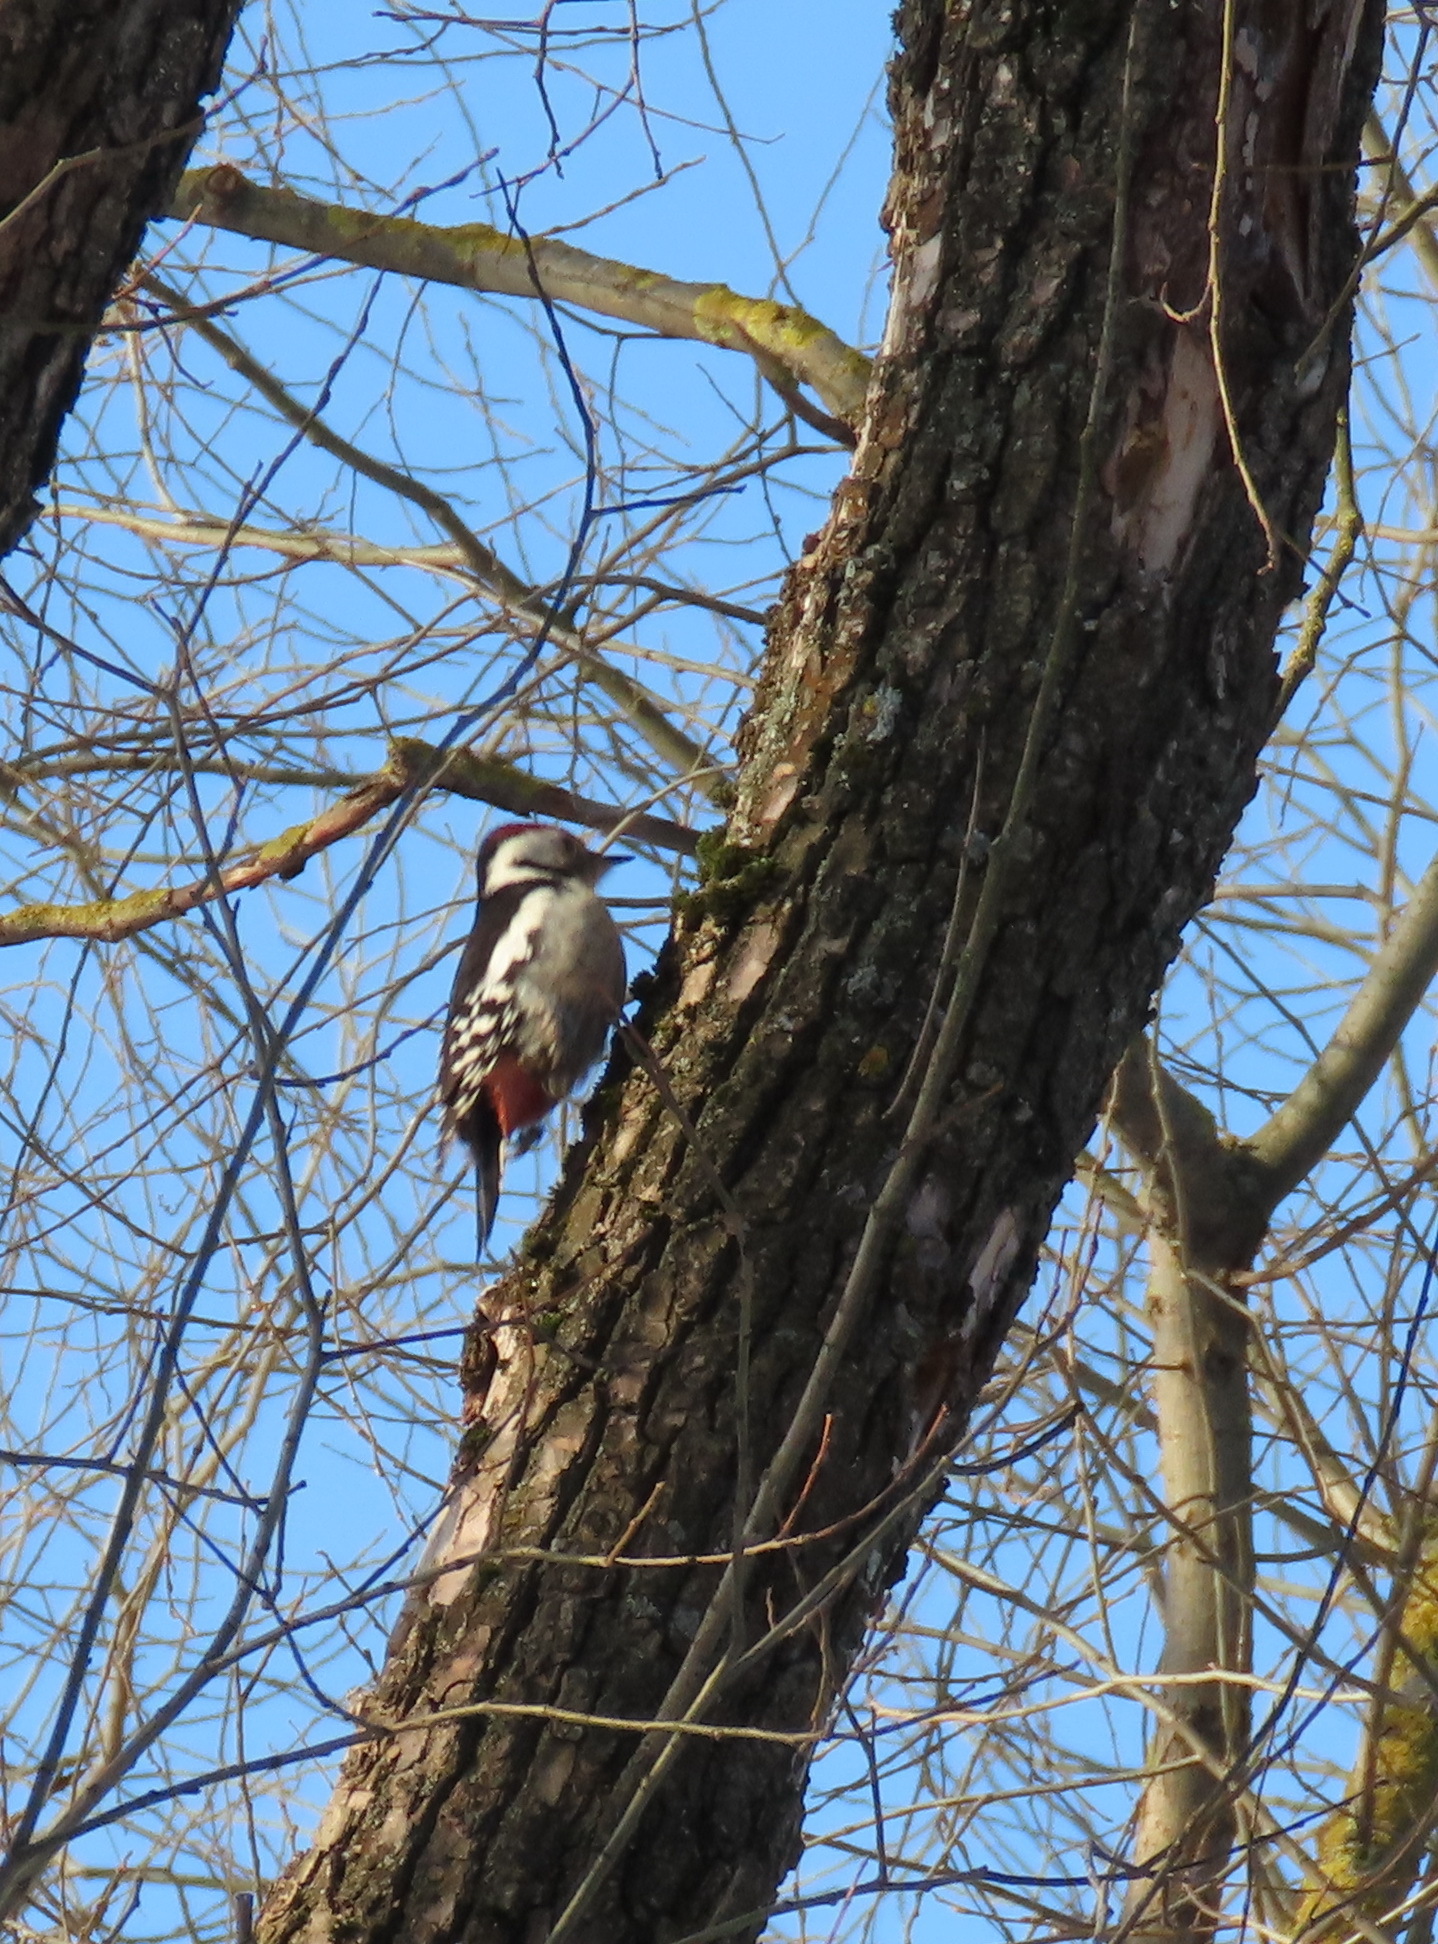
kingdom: Animalia
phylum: Chordata
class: Aves
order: Piciformes
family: Picidae
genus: Dendrocoptes
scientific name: Dendrocoptes medius
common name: Middle spotted woodpecker
